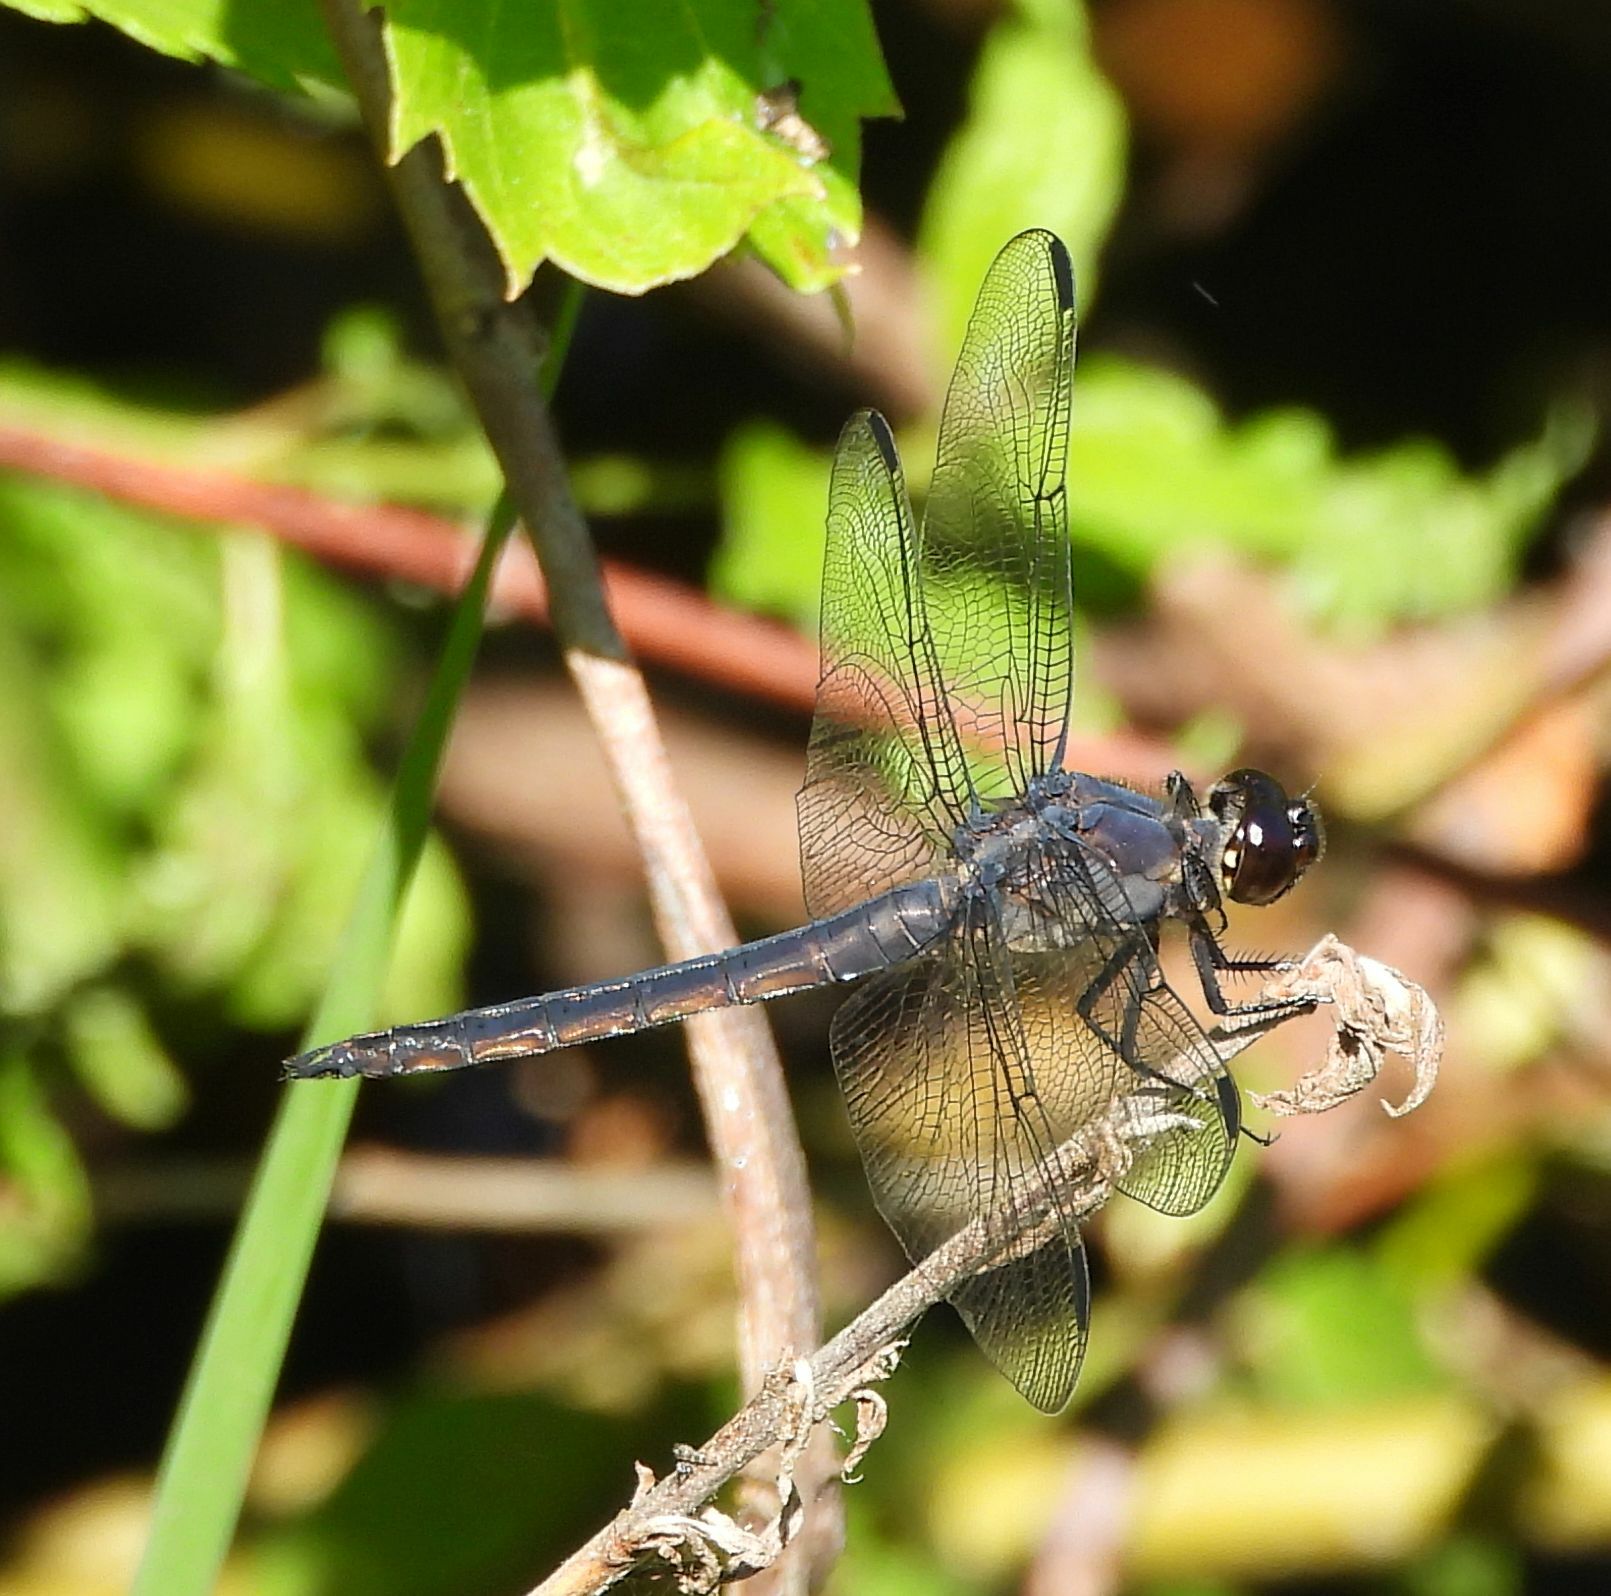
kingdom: Animalia
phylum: Arthropoda
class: Insecta
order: Odonata
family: Libellulidae
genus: Libellula
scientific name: Libellula incesta
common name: Slaty skimmer
